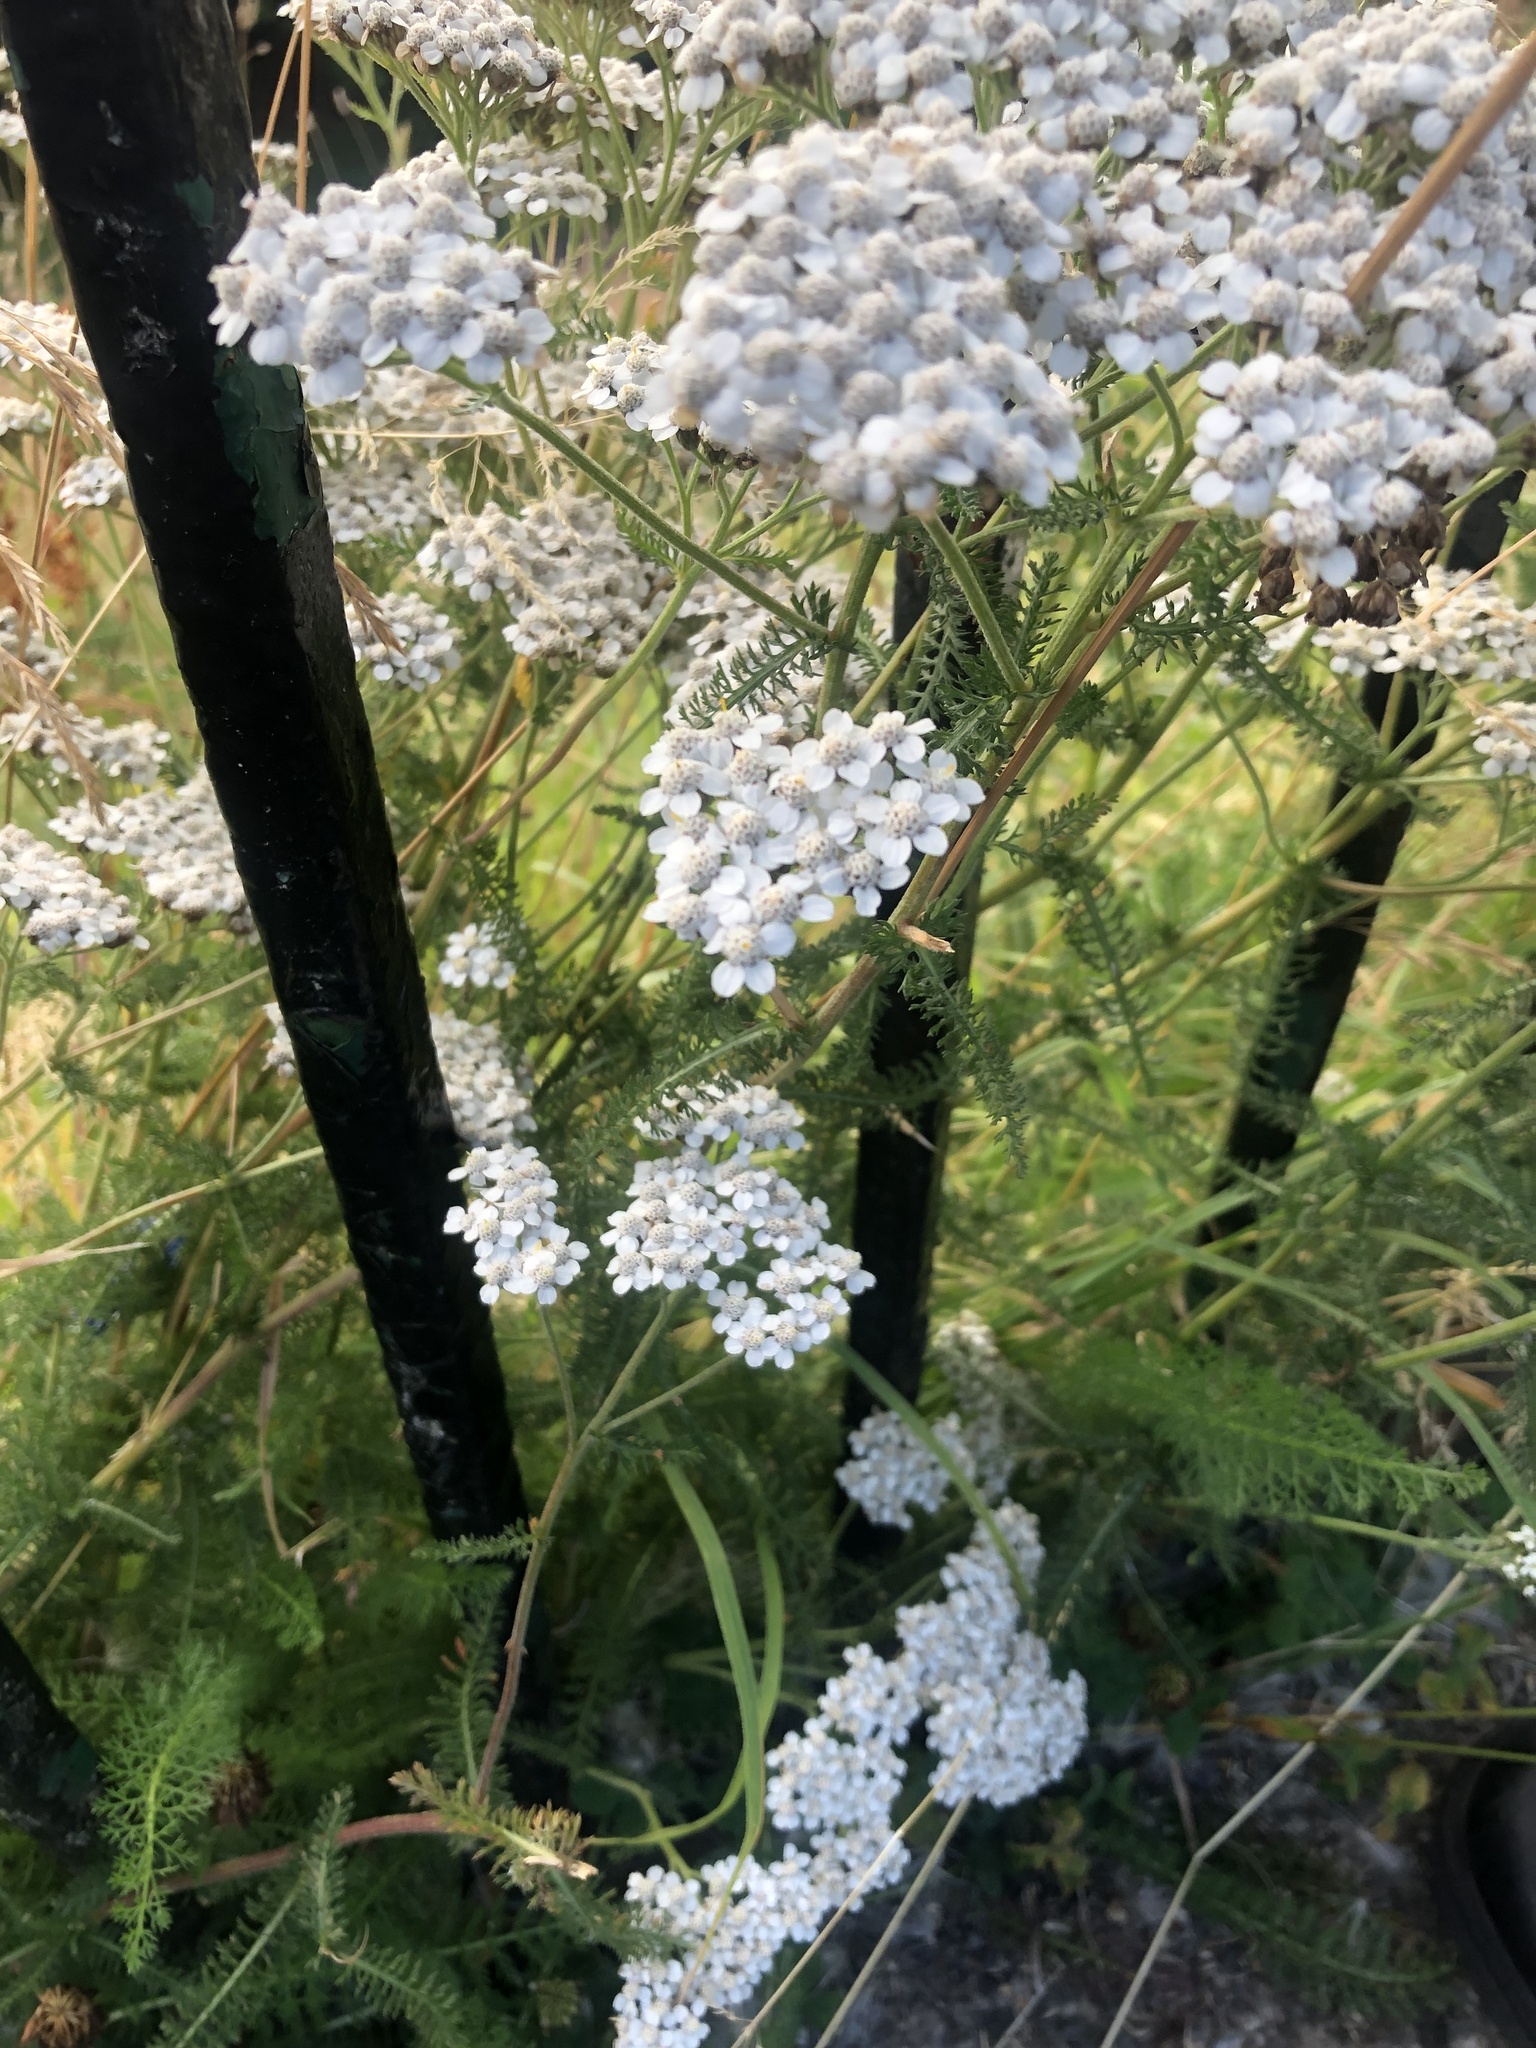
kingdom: Plantae
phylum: Tracheophyta
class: Magnoliopsida
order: Asterales
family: Asteraceae
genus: Achillea
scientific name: Achillea millefolium
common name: Yarrow
